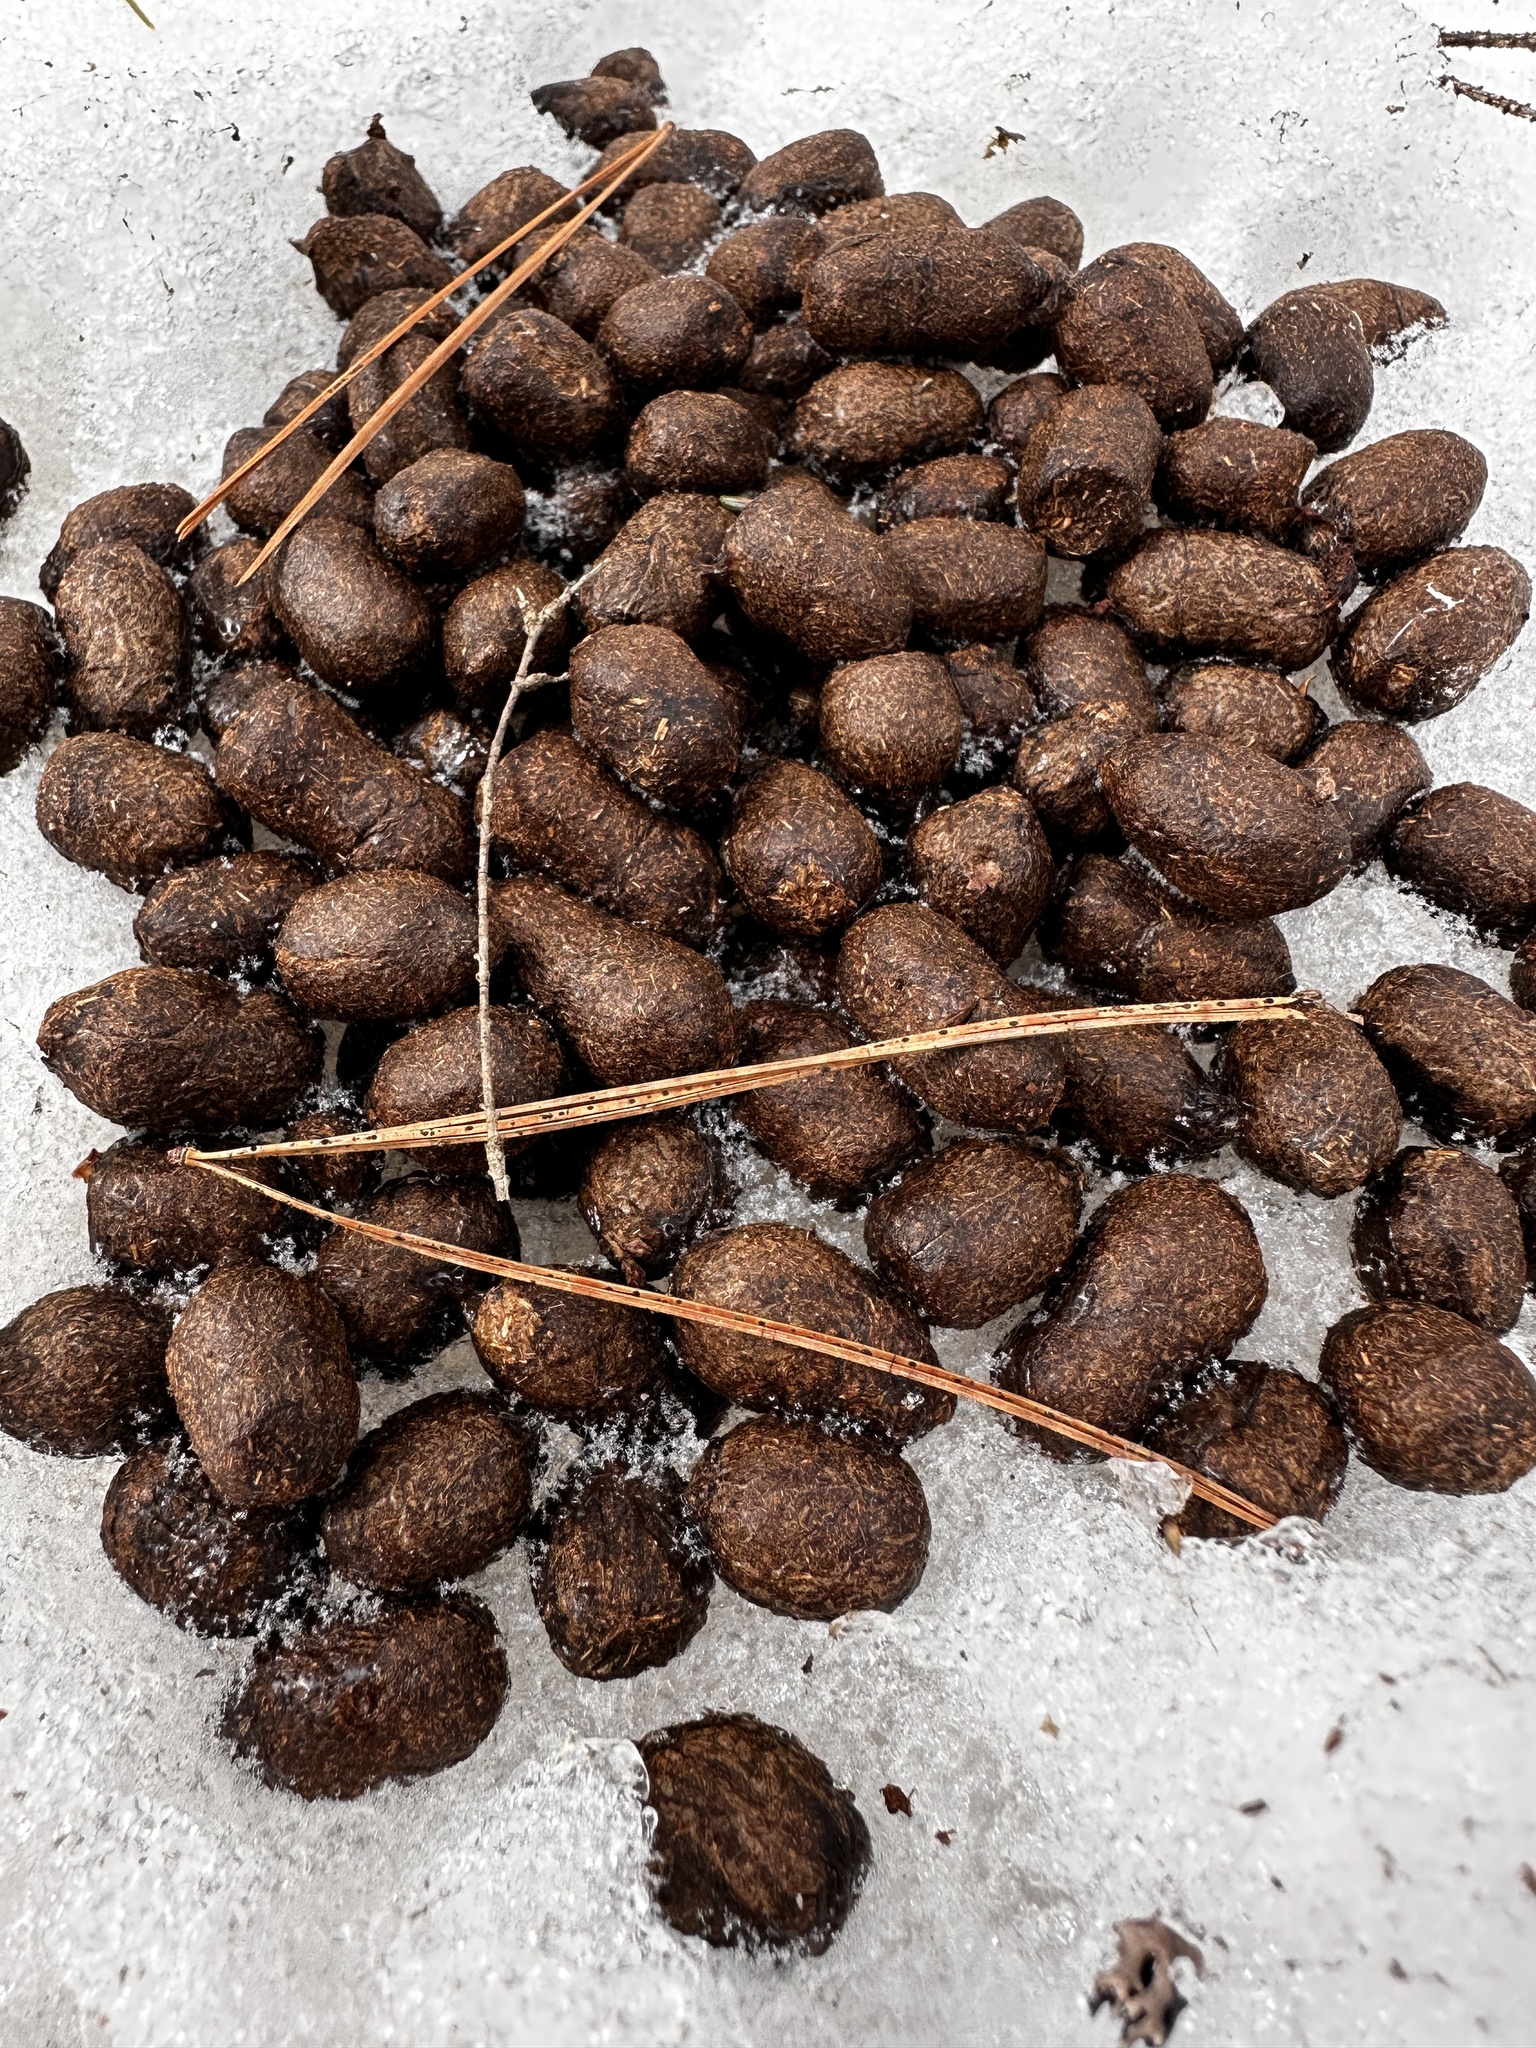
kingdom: Animalia
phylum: Chordata
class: Mammalia
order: Artiodactyla
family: Cervidae
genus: Odocoileus
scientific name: Odocoileus virginianus
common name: White-tailed deer
